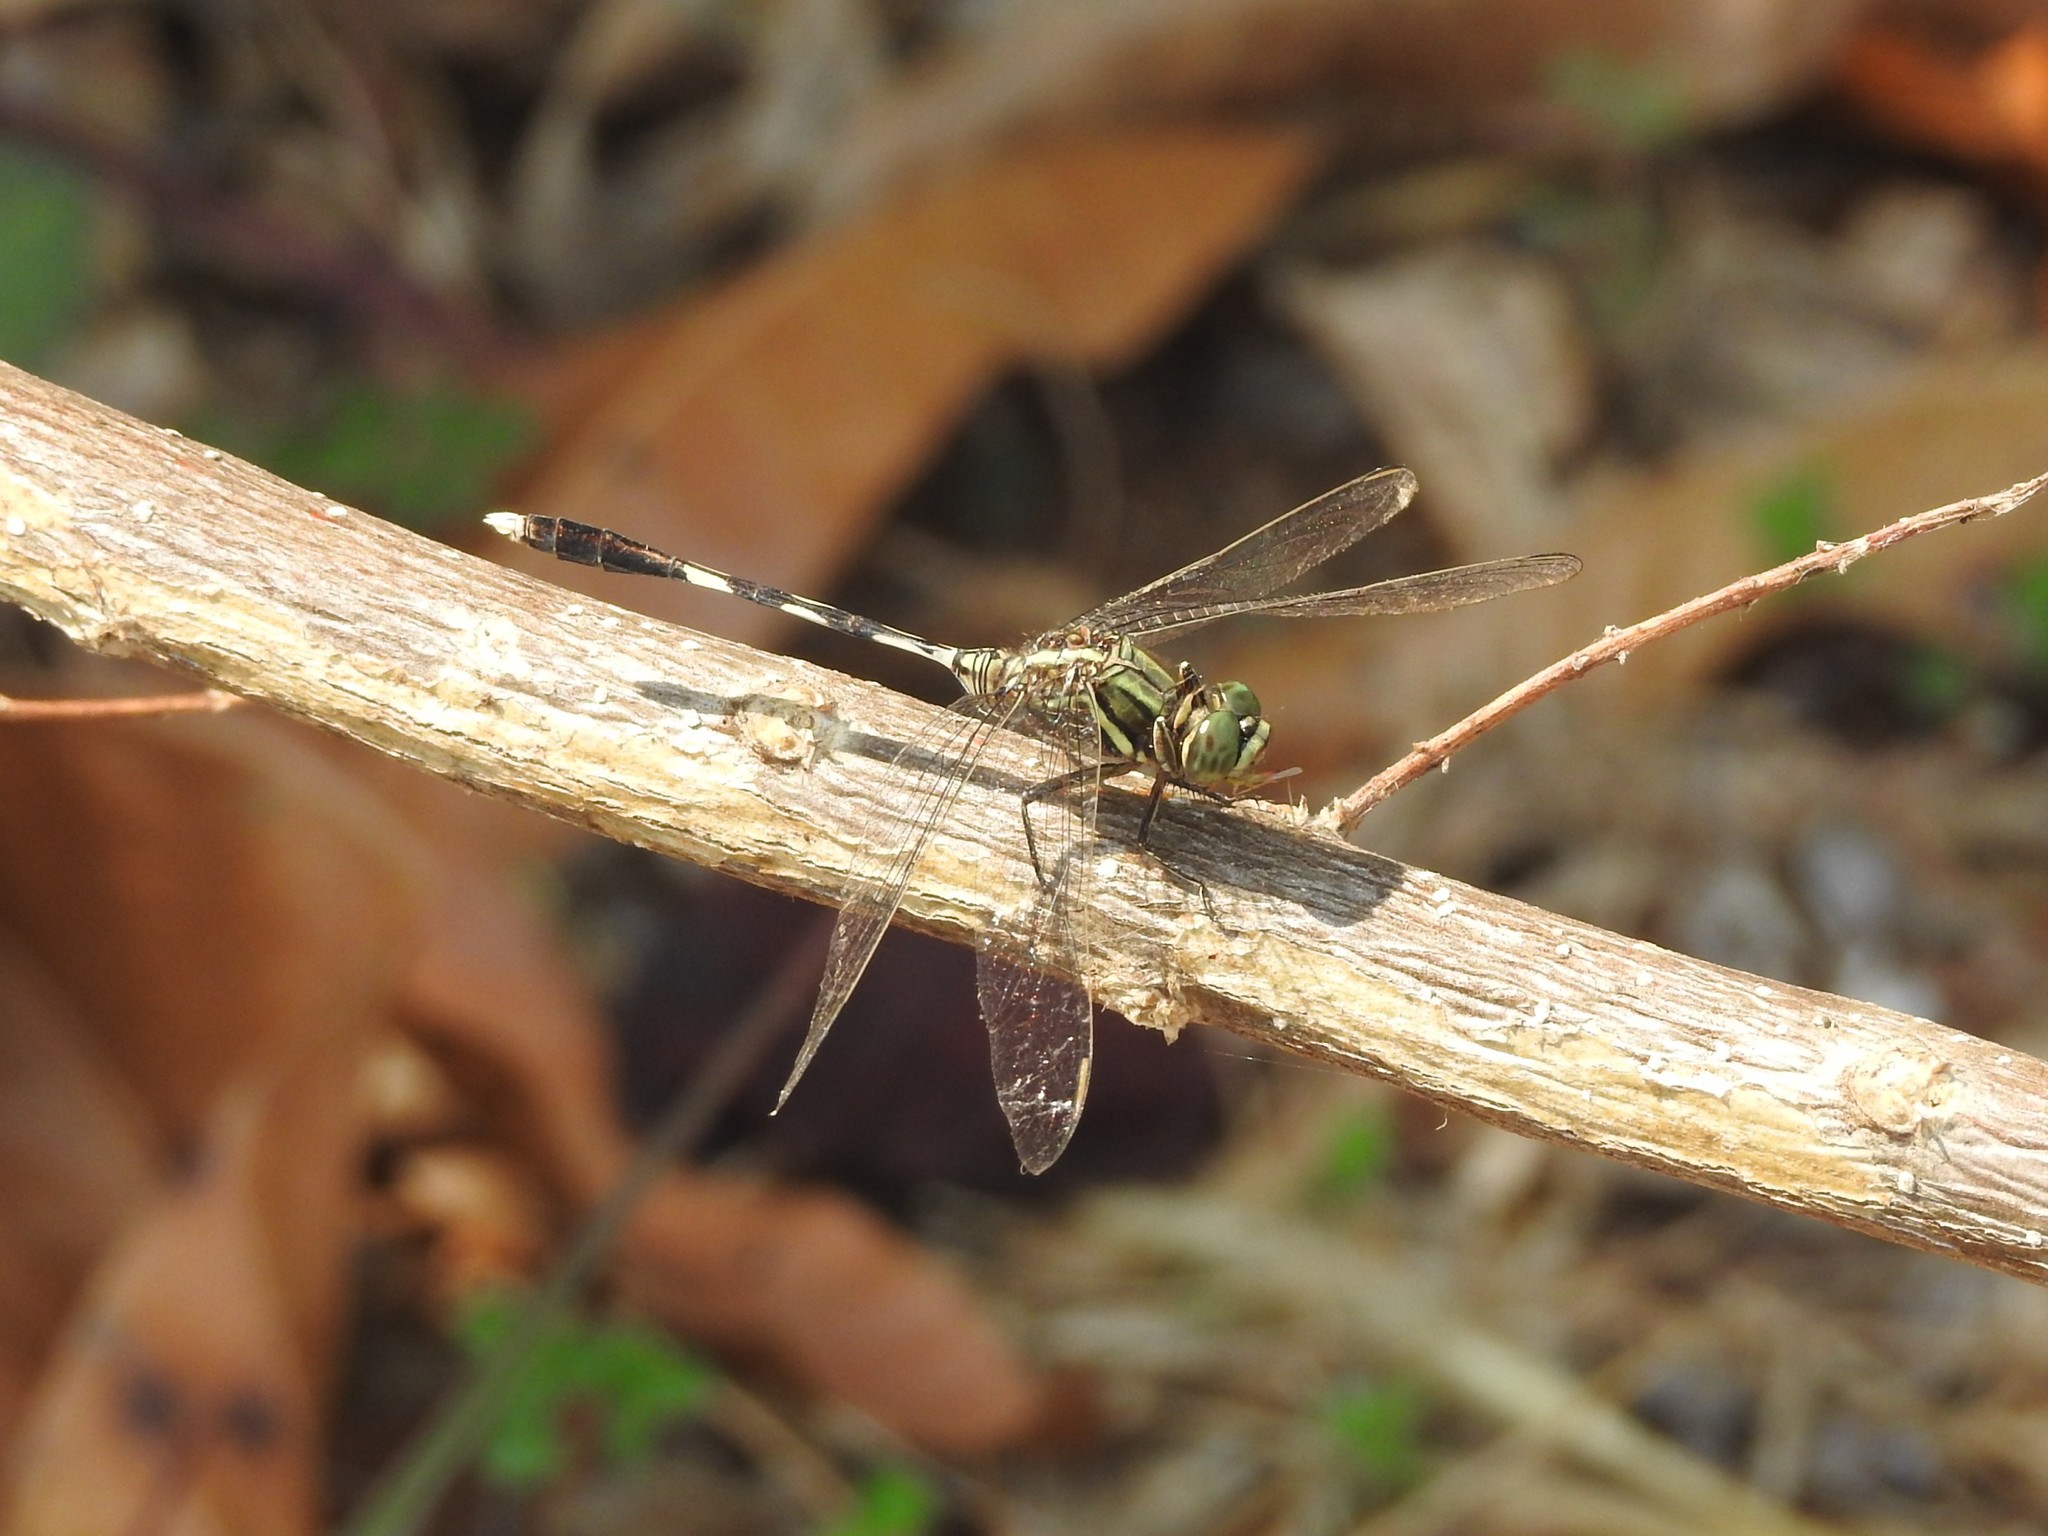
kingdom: Animalia
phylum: Arthropoda
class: Insecta
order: Odonata
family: Libellulidae
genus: Orthetrum
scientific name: Orthetrum sabina
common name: Slender skimmer
